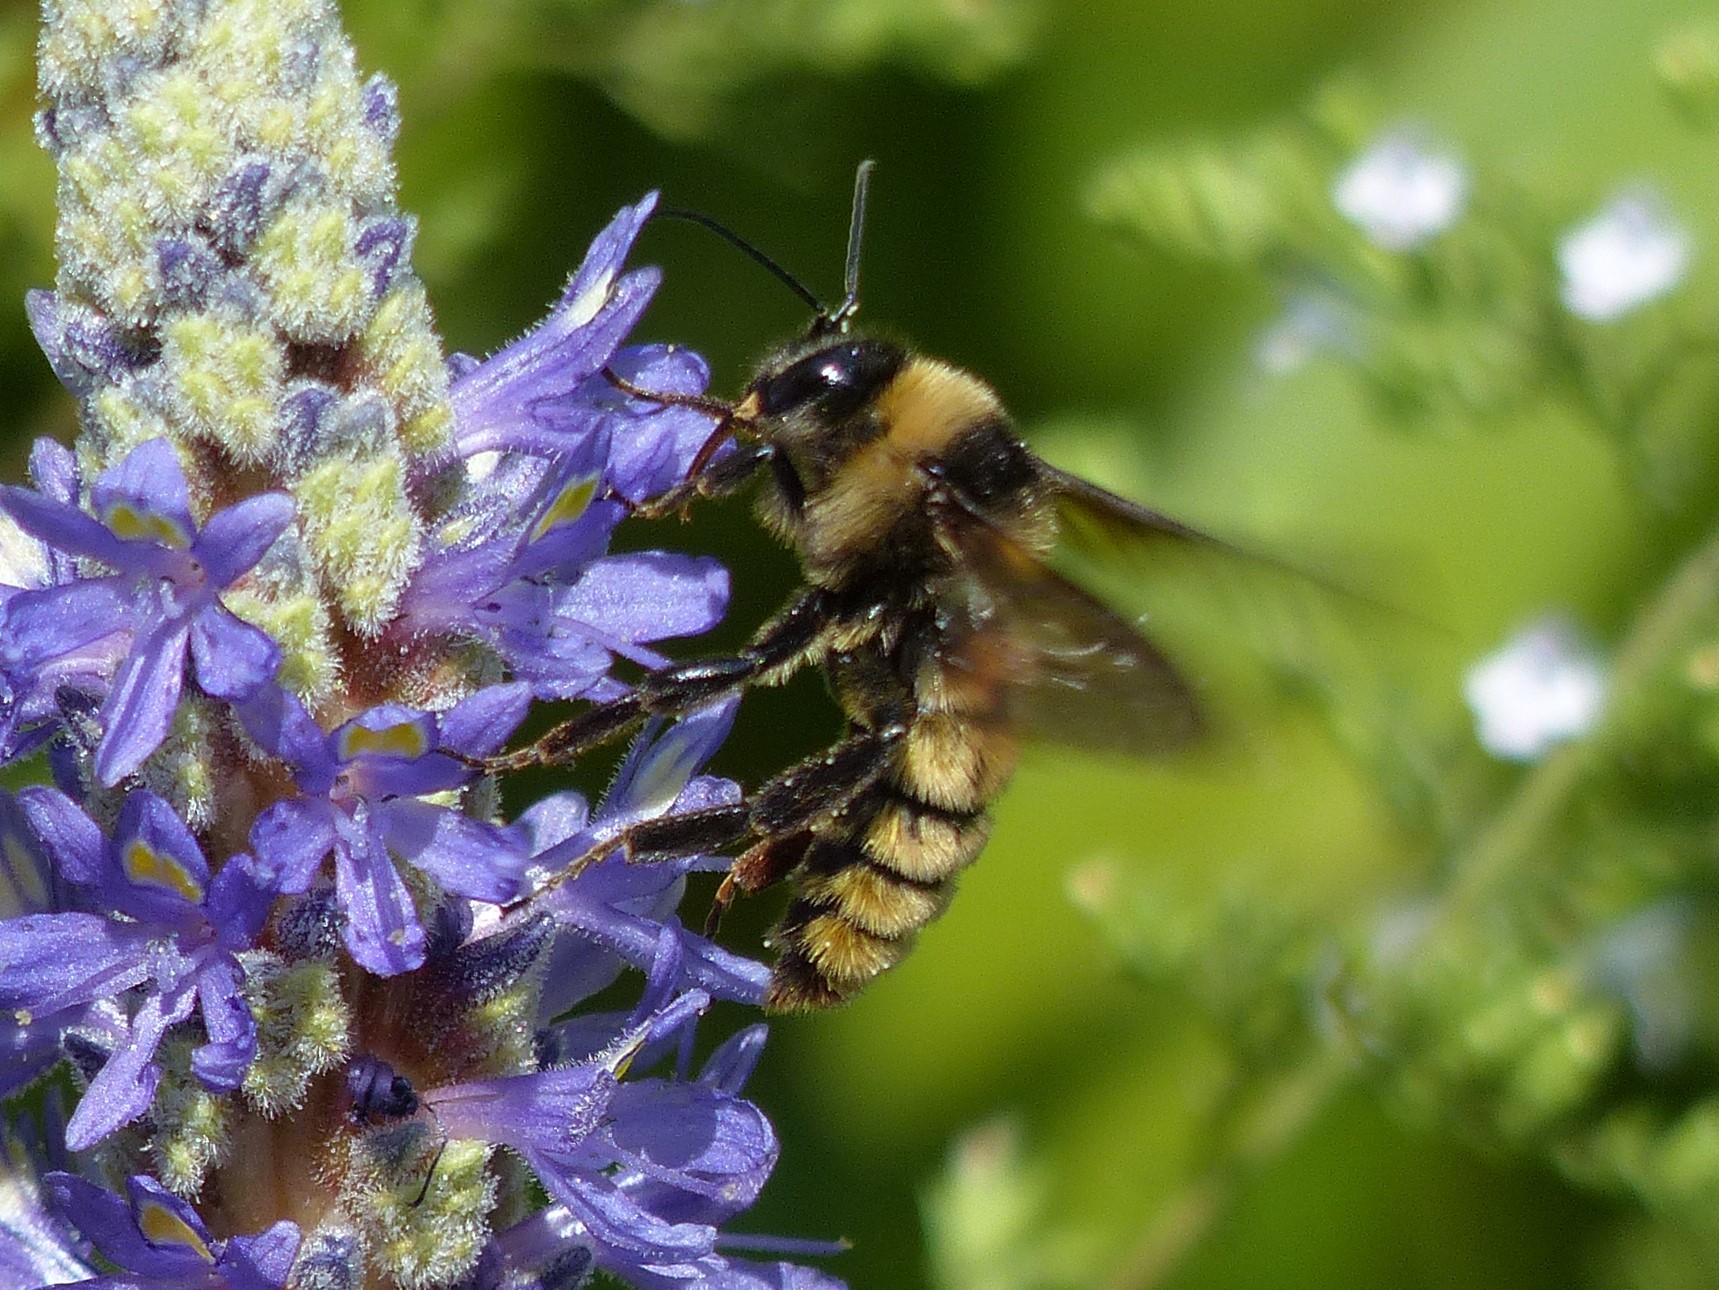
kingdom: Animalia
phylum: Arthropoda
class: Insecta
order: Hymenoptera
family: Apidae
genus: Bombus
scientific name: Bombus pensylvanicus
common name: Bumble bee
